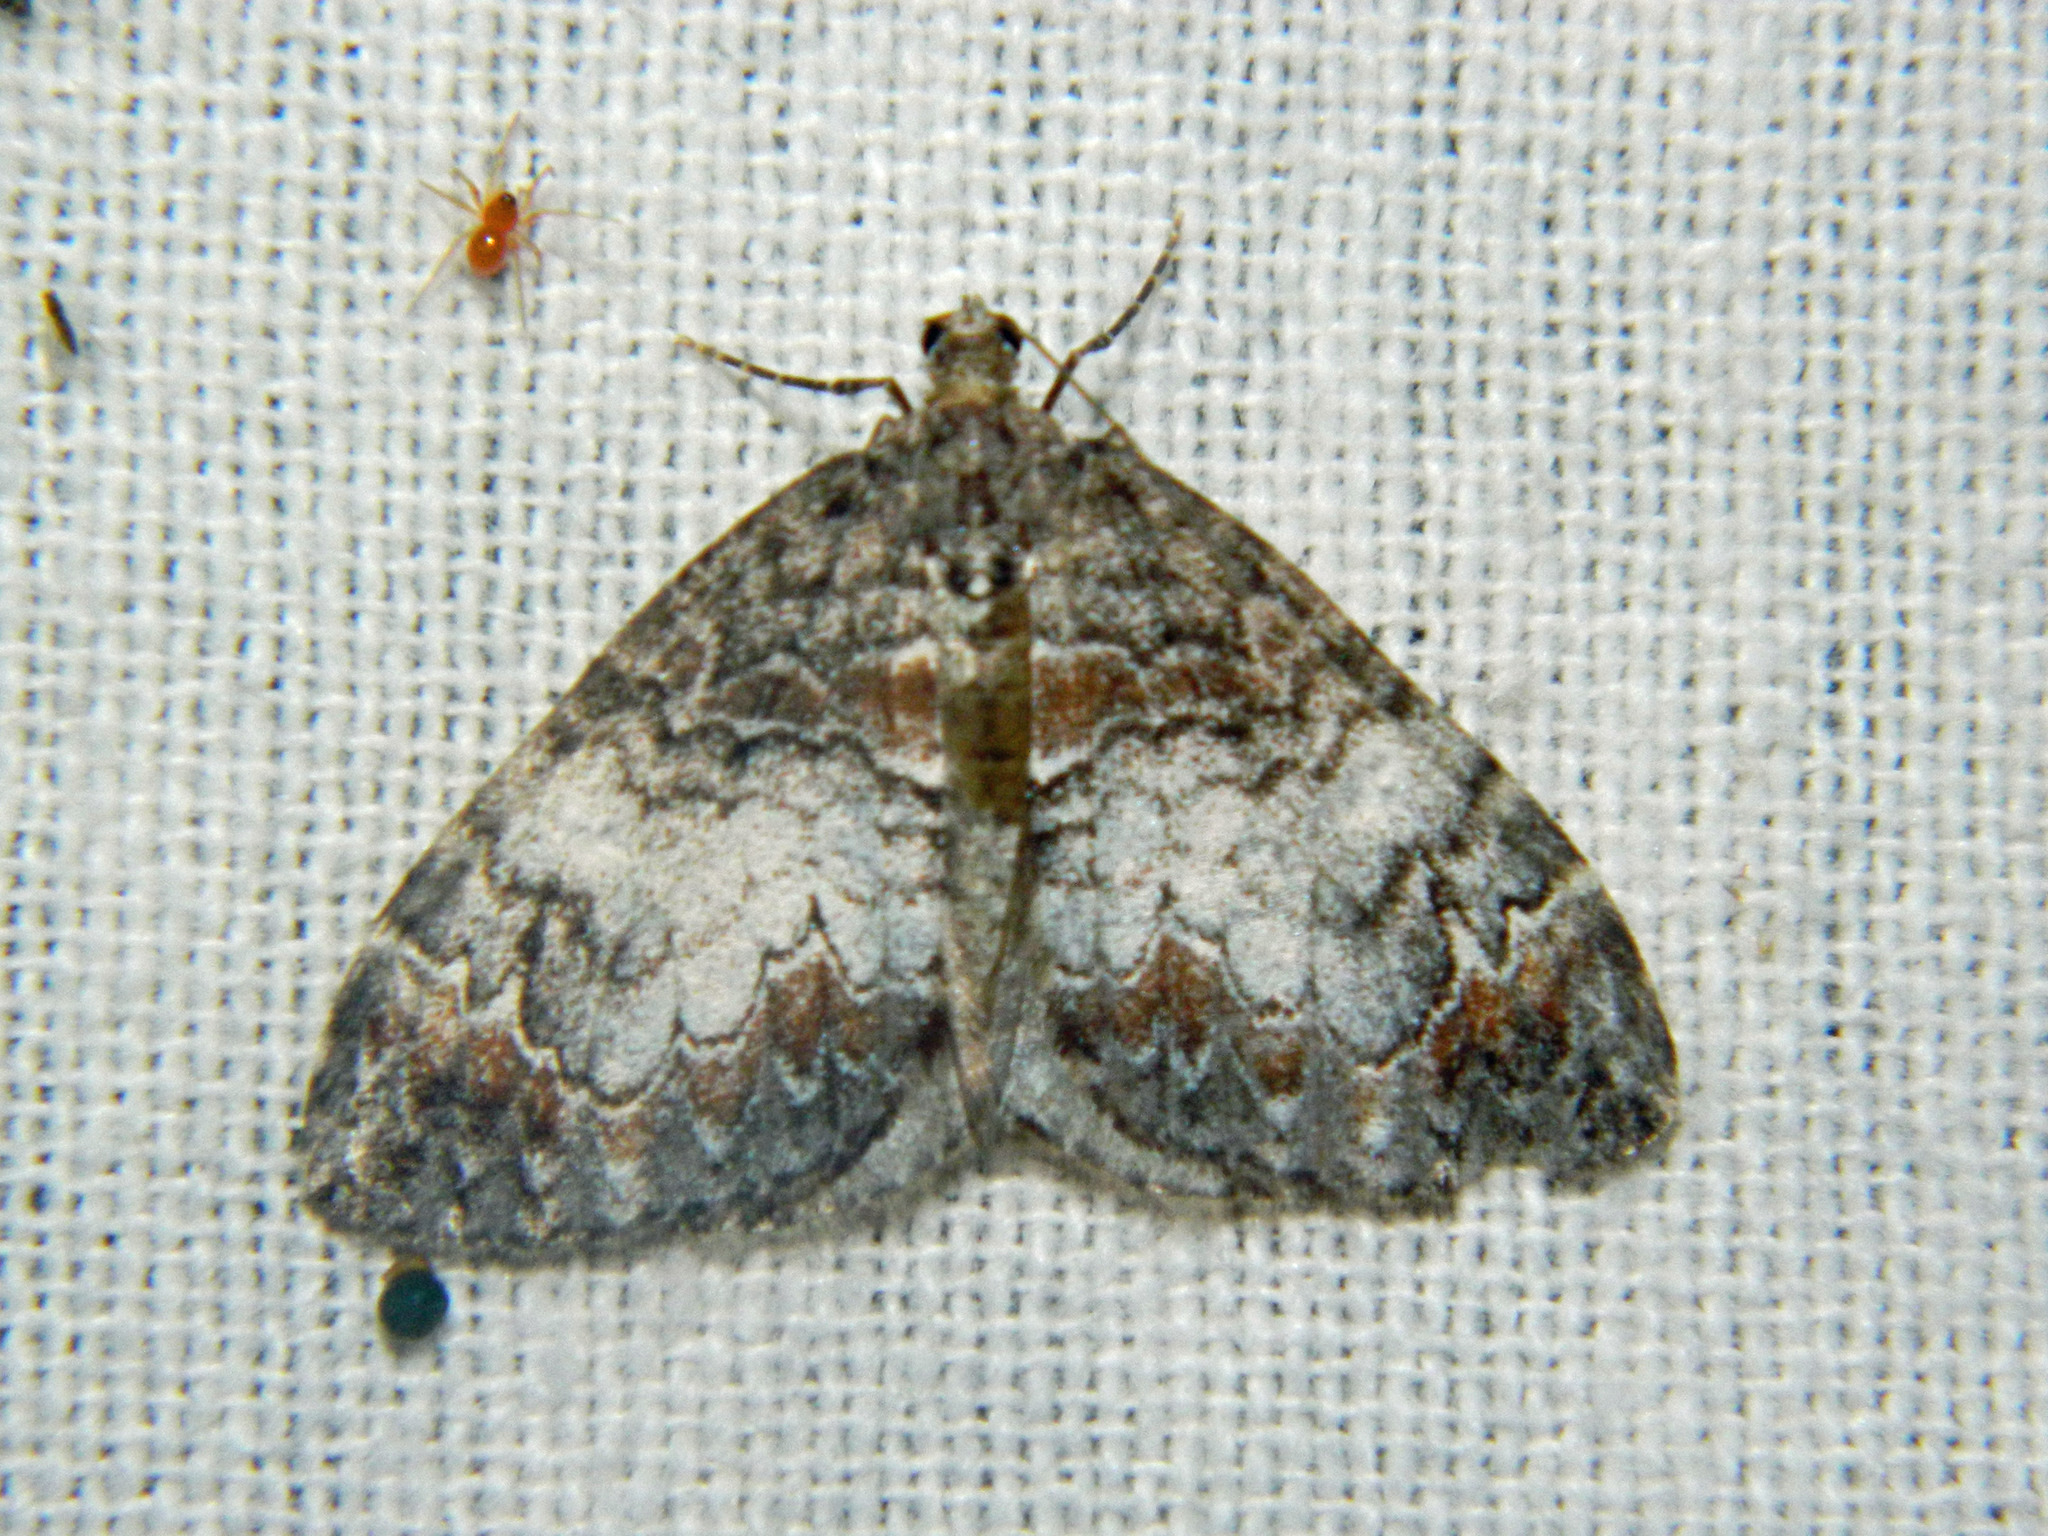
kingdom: Animalia
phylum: Arthropoda
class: Insecta
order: Lepidoptera
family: Geometridae
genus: Dysstroma
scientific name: Dysstroma truncata
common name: Common marbled carpet
